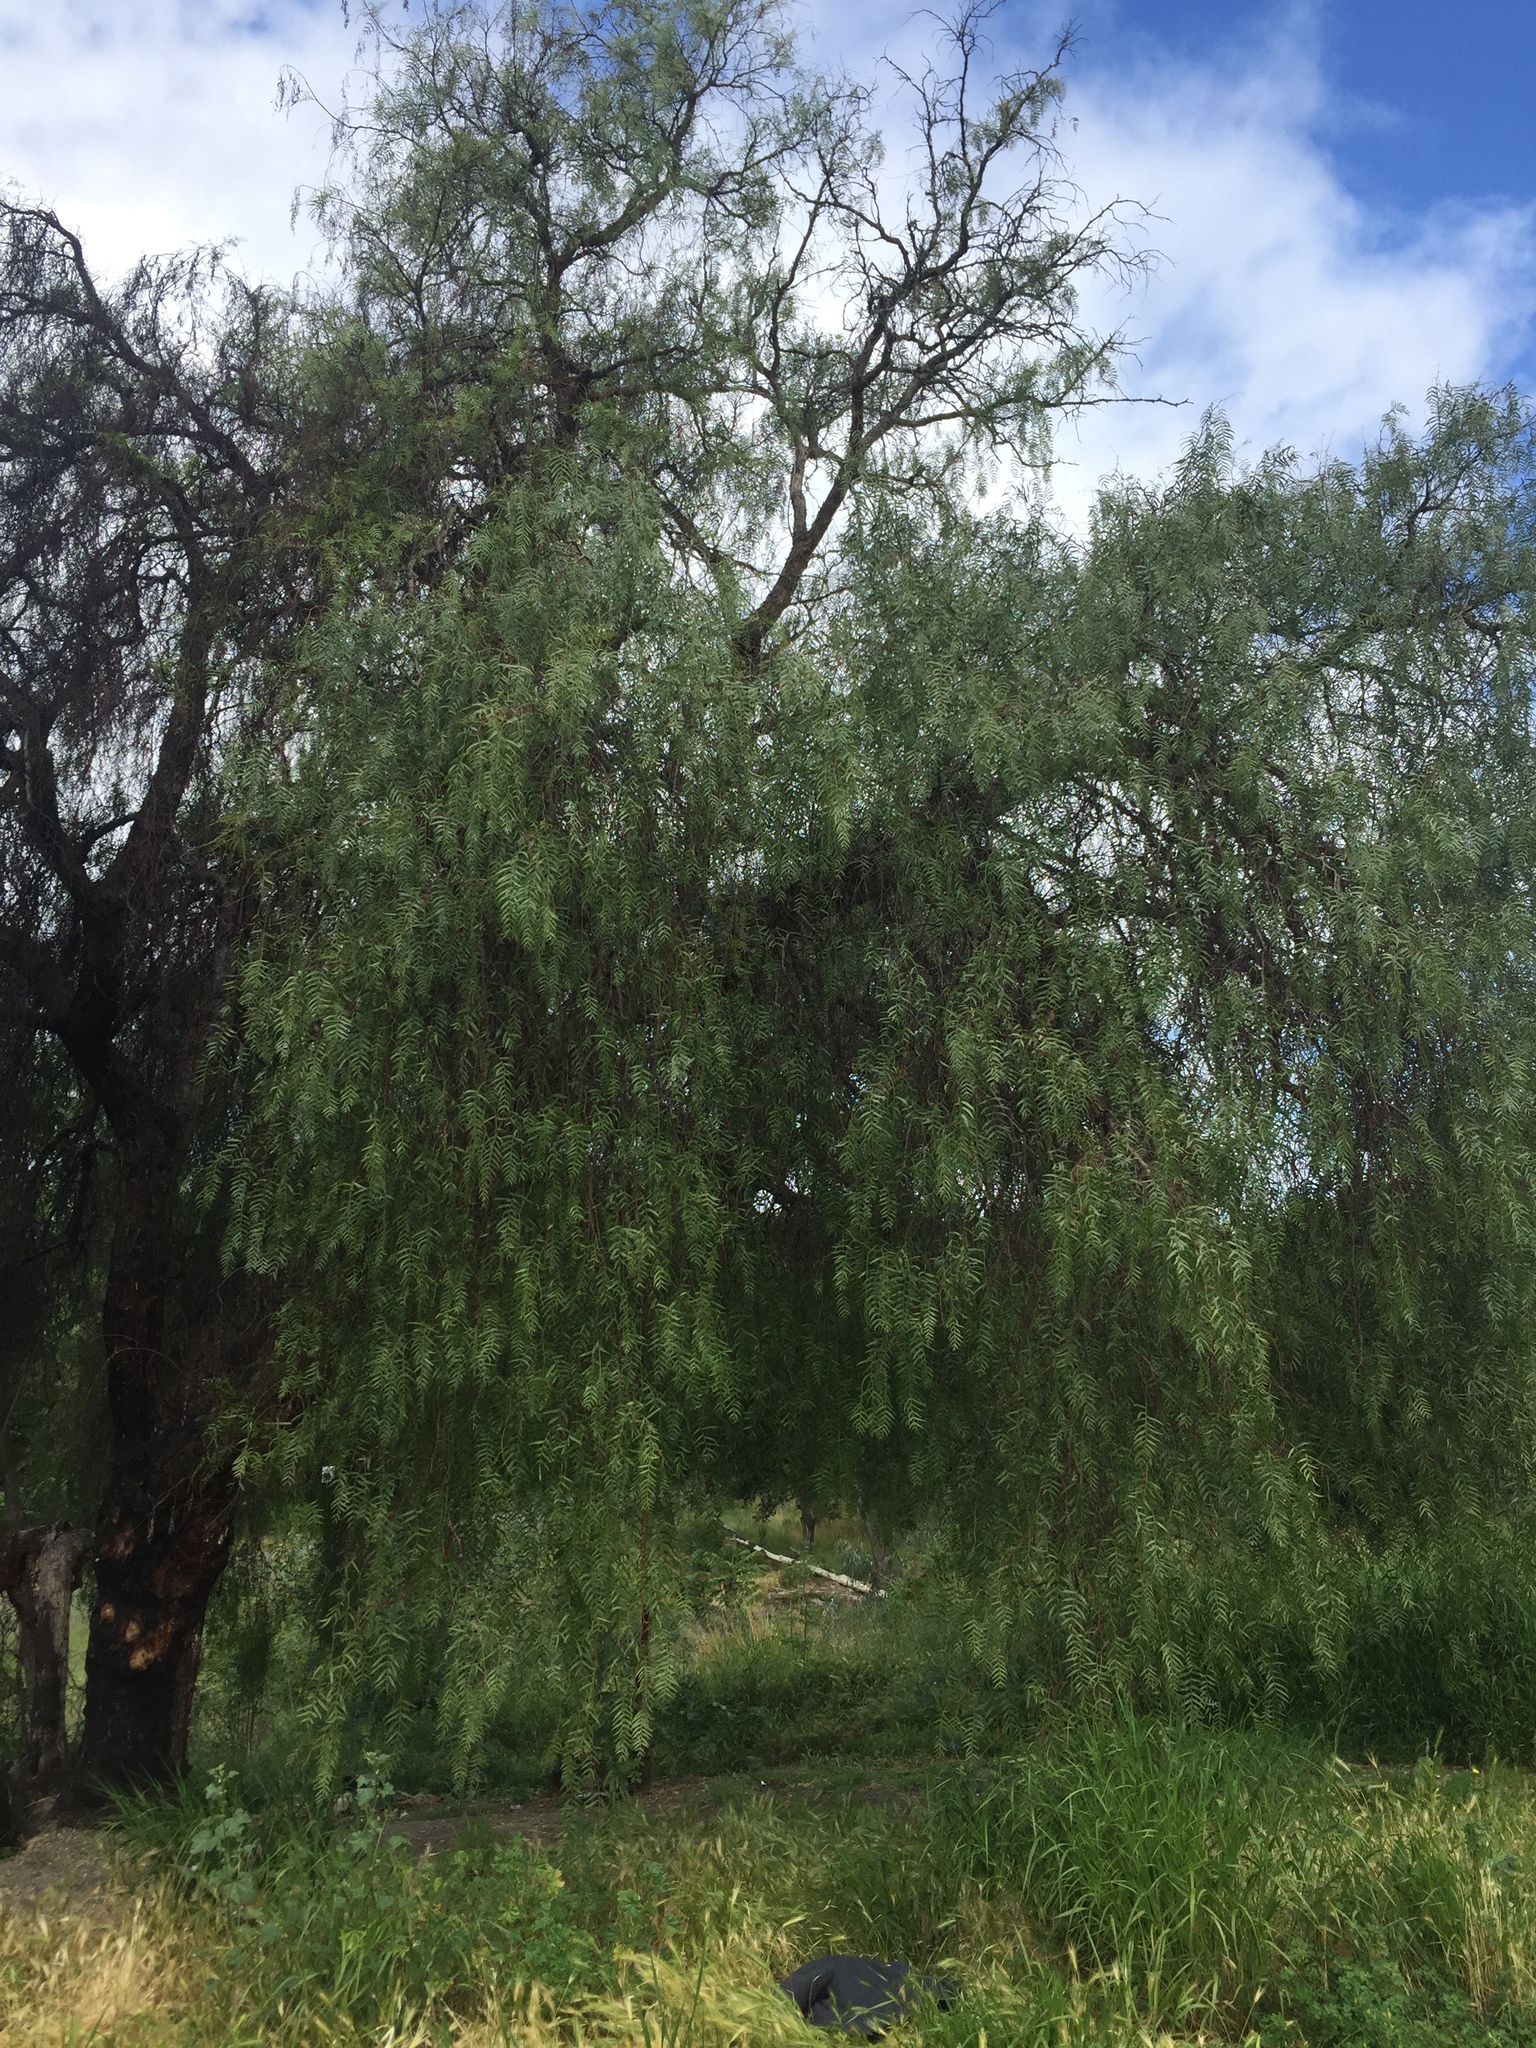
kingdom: Plantae
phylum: Tracheophyta
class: Magnoliopsida
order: Sapindales
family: Anacardiaceae
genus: Schinus
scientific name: Schinus molle
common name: Peruvian peppertree
